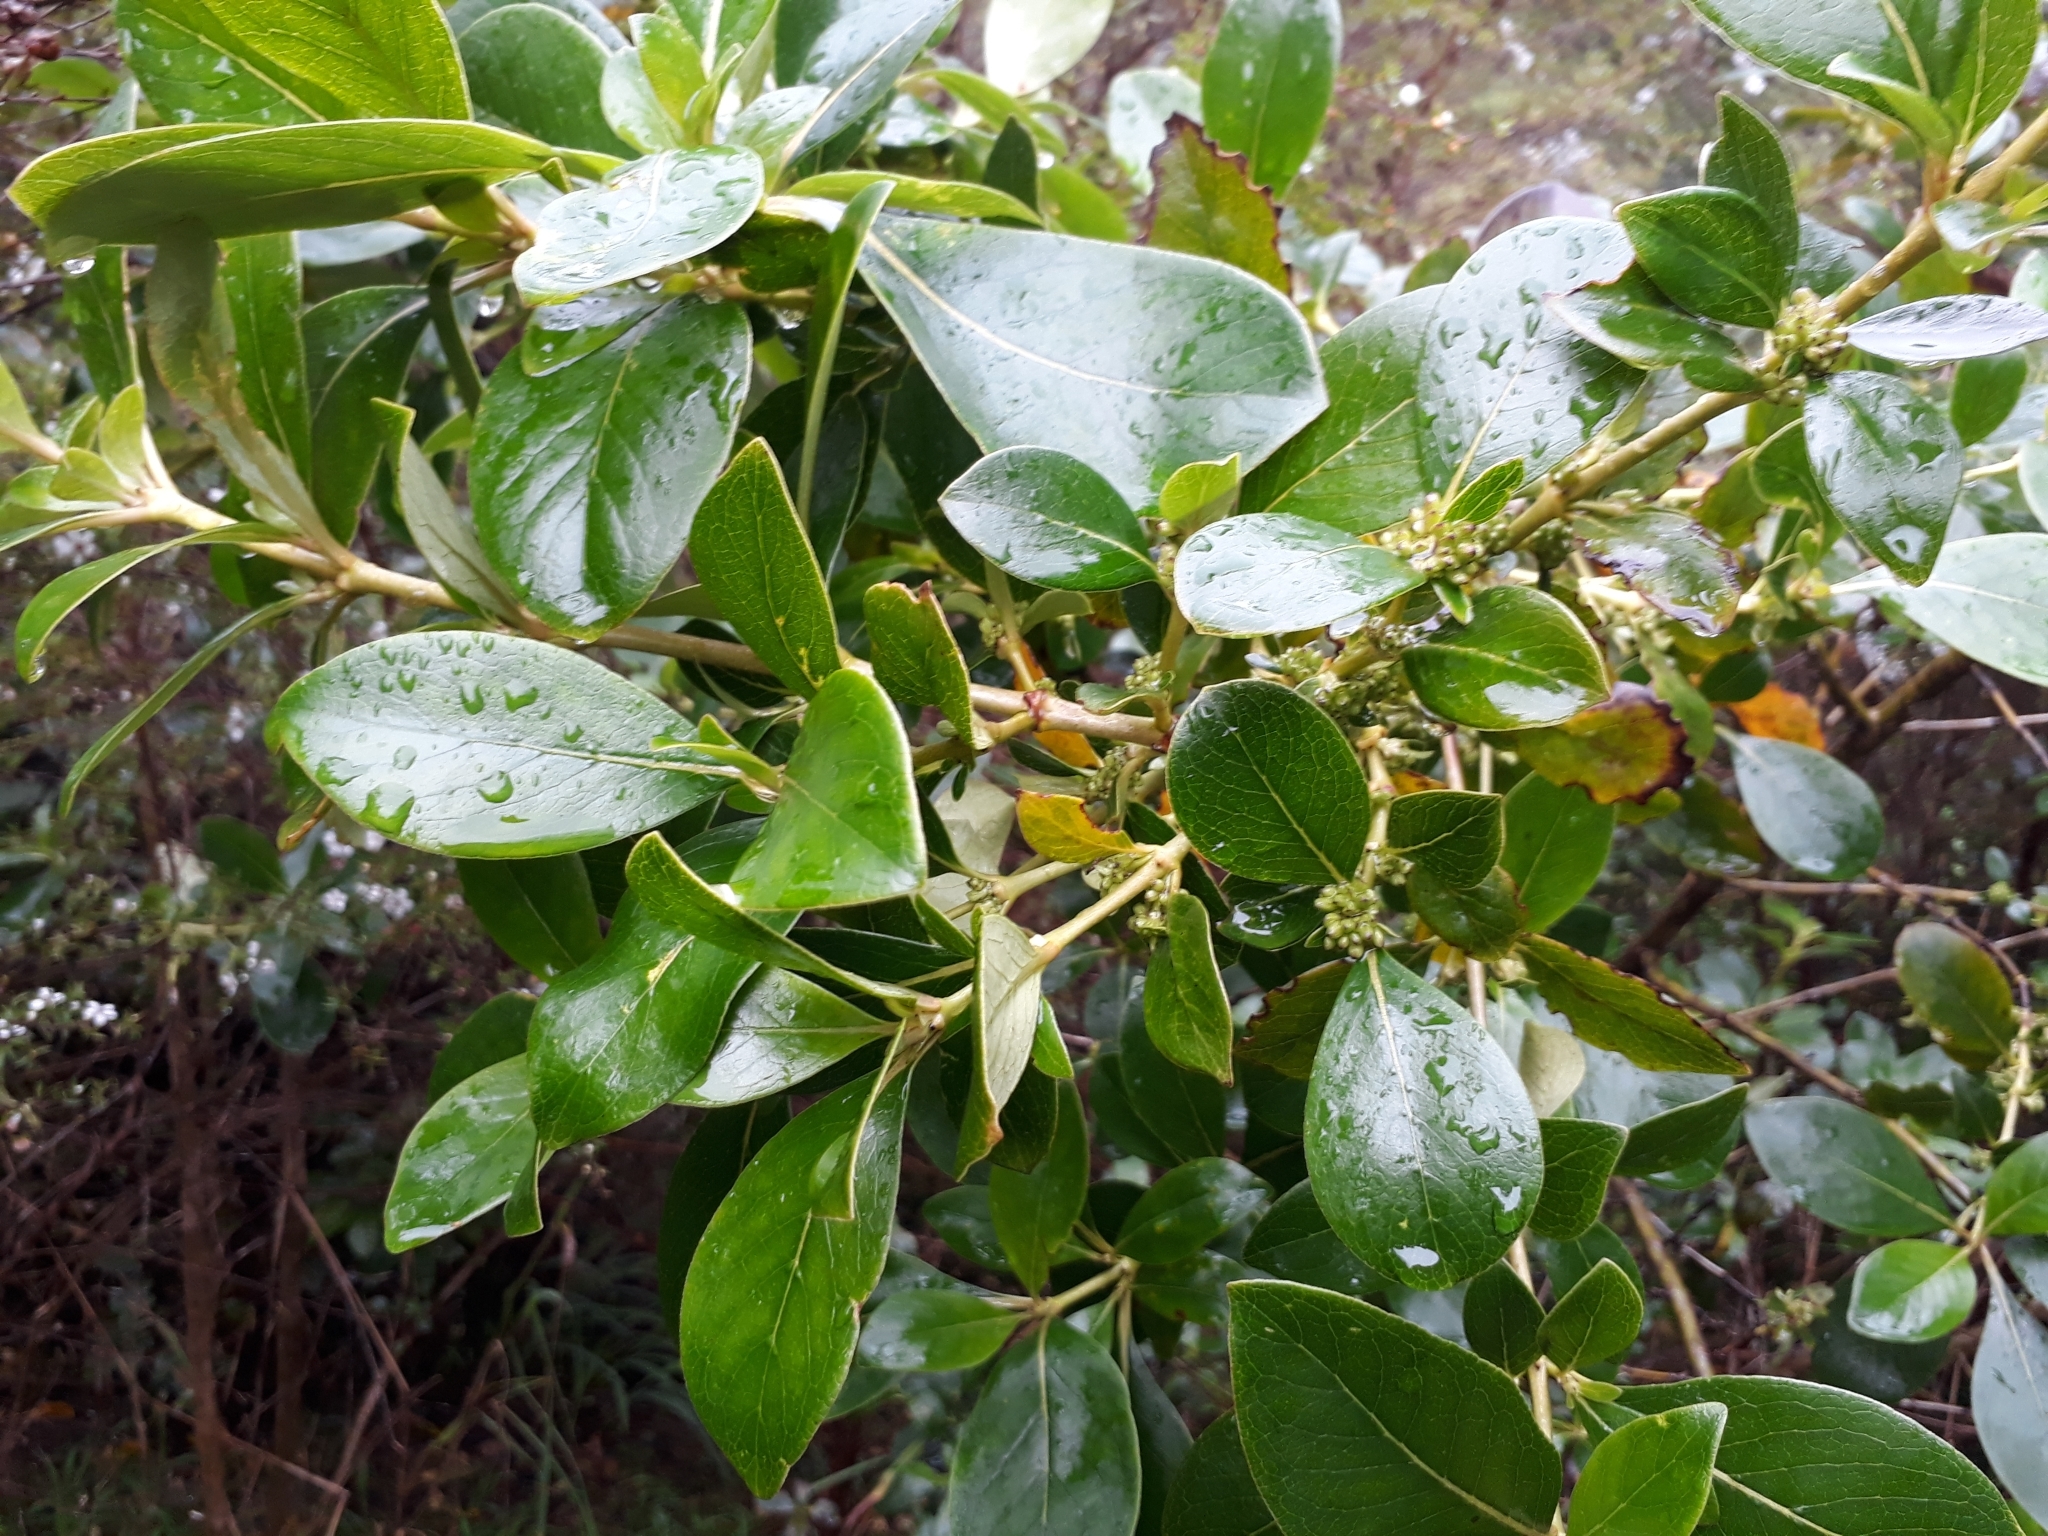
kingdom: Plantae
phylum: Tracheophyta
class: Magnoliopsida
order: Gentianales
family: Rubiaceae
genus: Coprosma
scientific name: Coprosma robusta
